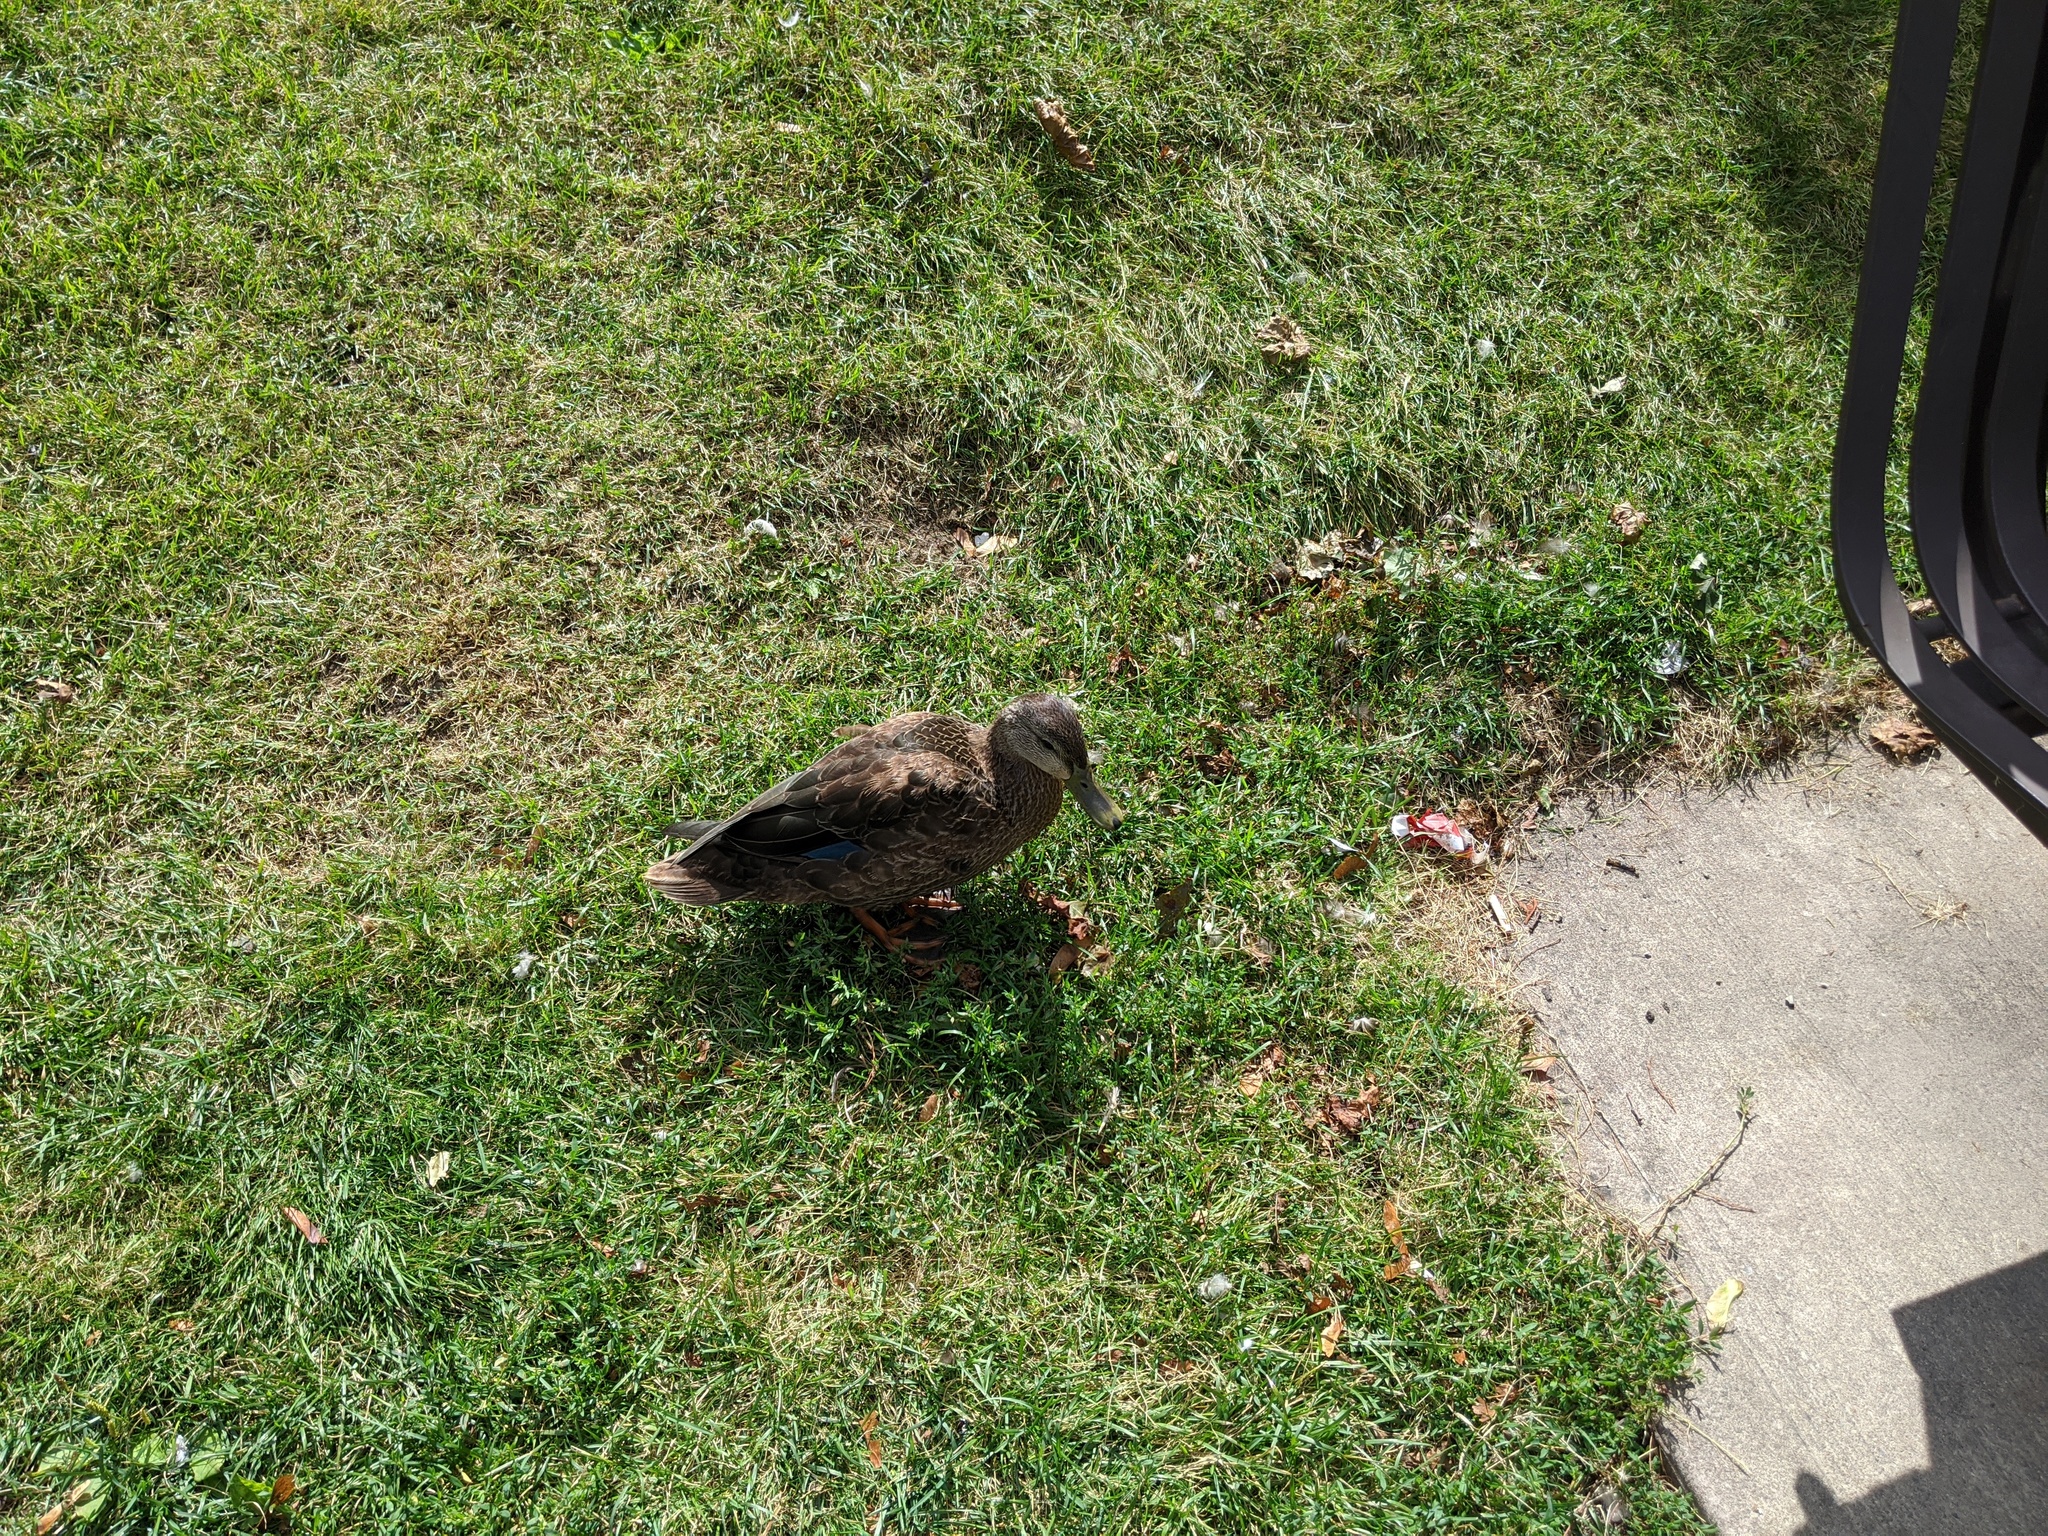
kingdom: Animalia
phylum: Chordata
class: Aves
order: Anseriformes
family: Anatidae
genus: Anas
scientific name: Anas rubripes
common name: American black duck
